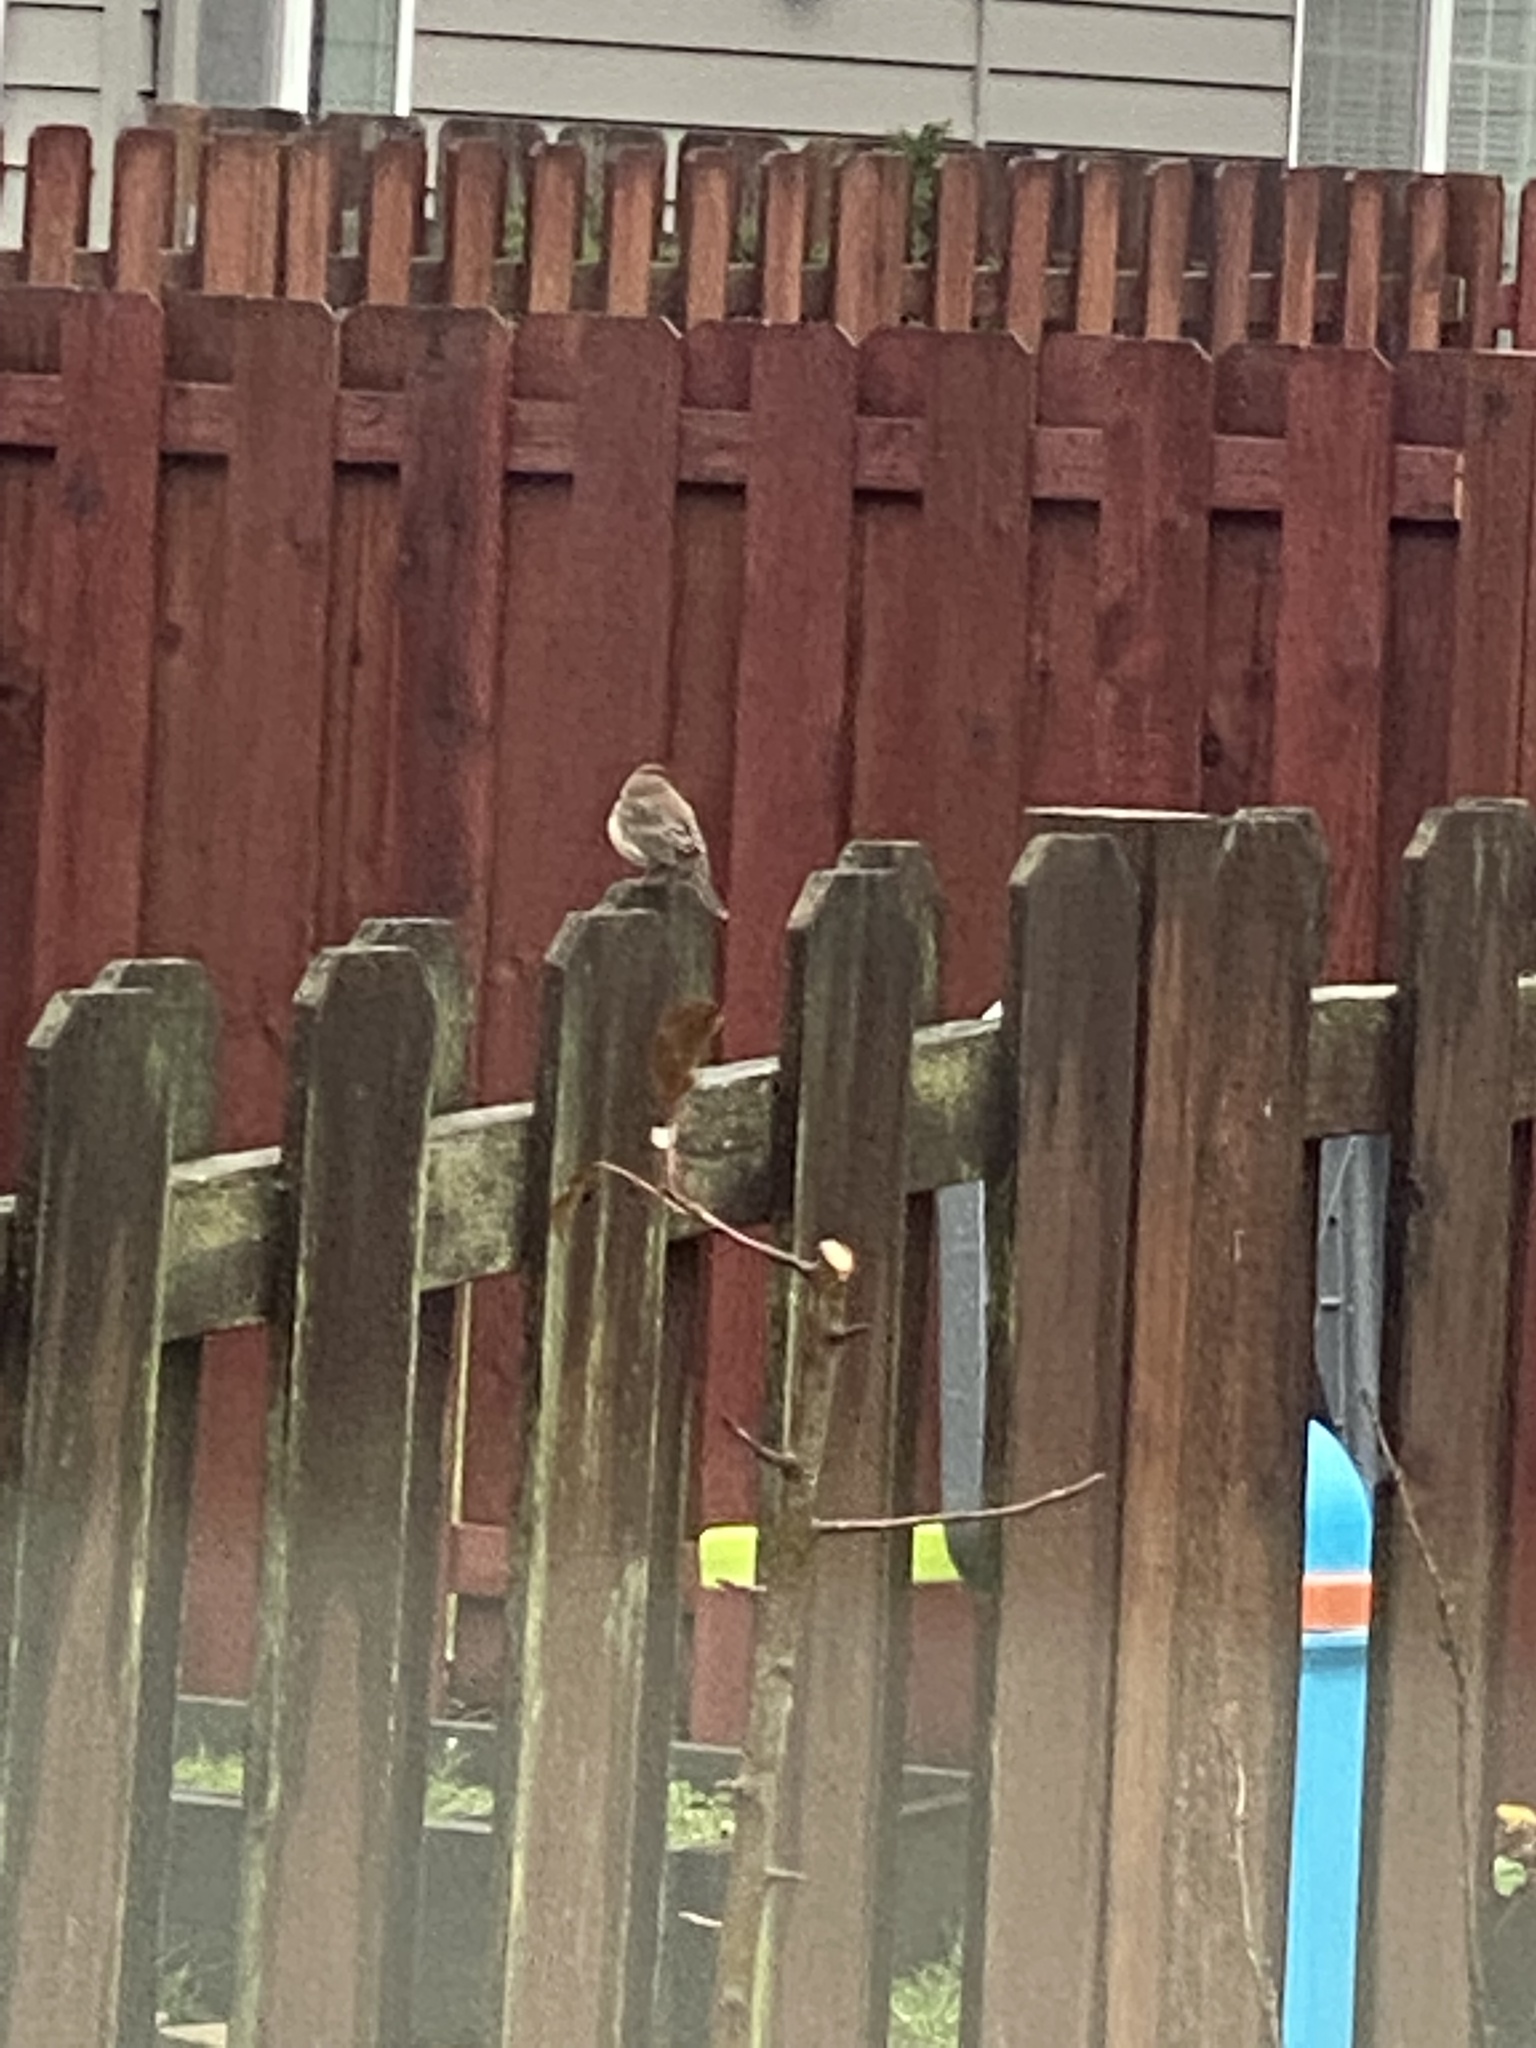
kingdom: Animalia
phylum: Chordata
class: Aves
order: Passeriformes
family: Fringillidae
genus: Haemorhous
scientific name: Haemorhous mexicanus
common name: House finch
